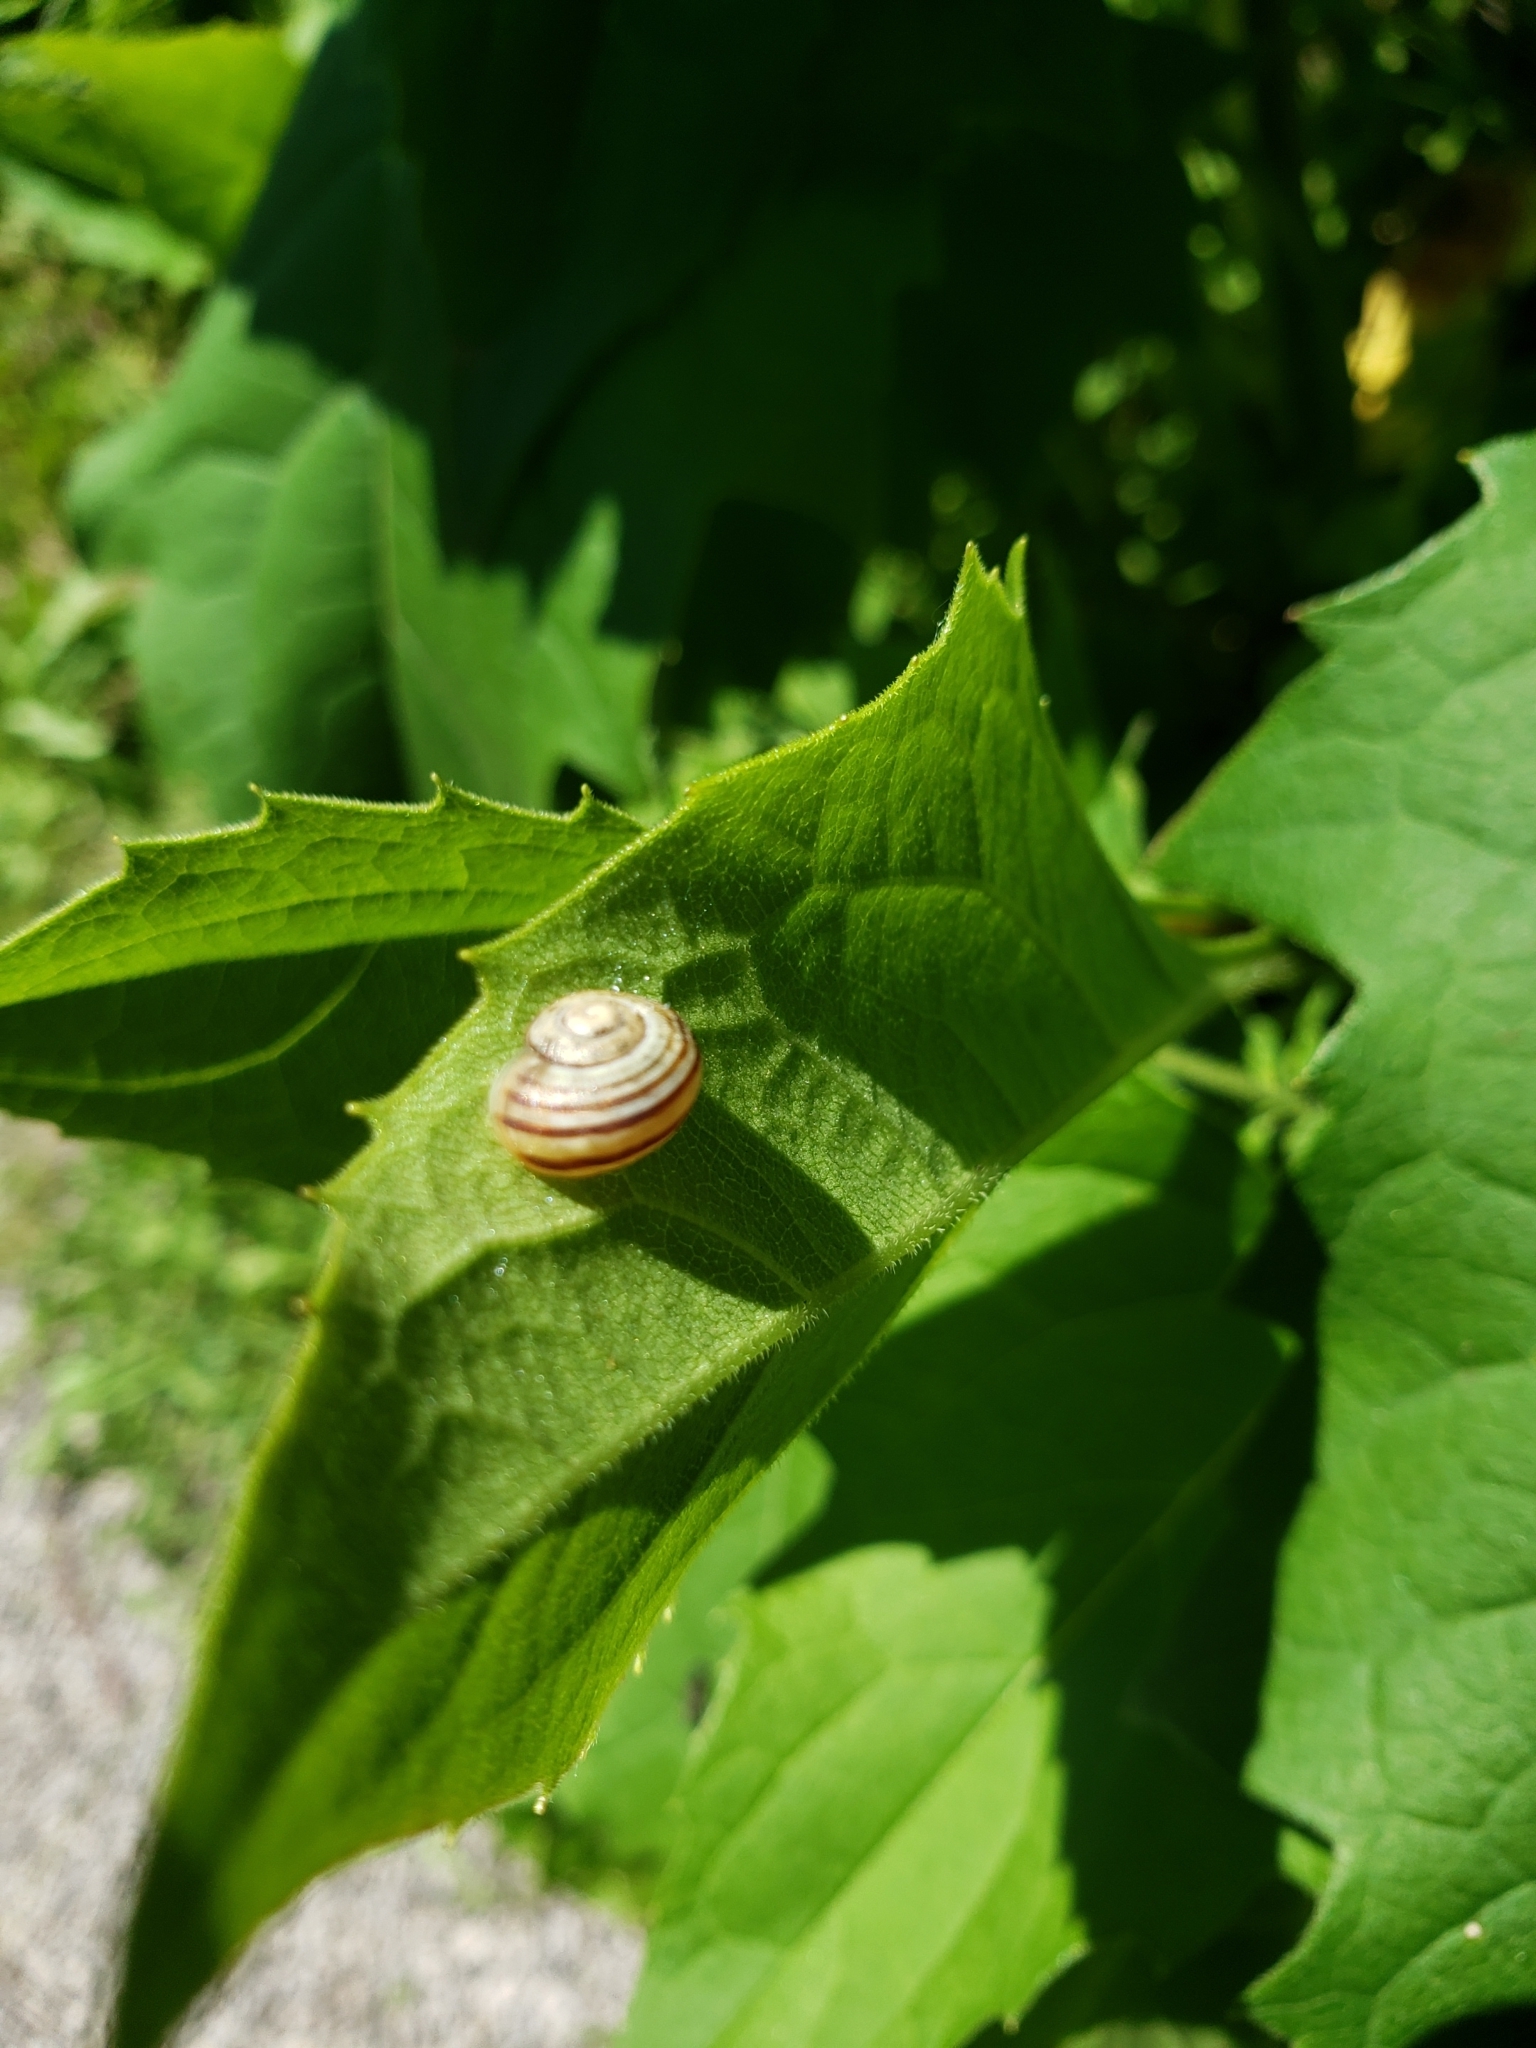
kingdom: Animalia
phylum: Mollusca
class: Gastropoda
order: Stylommatophora
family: Helicidae
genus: Cepaea
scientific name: Cepaea
